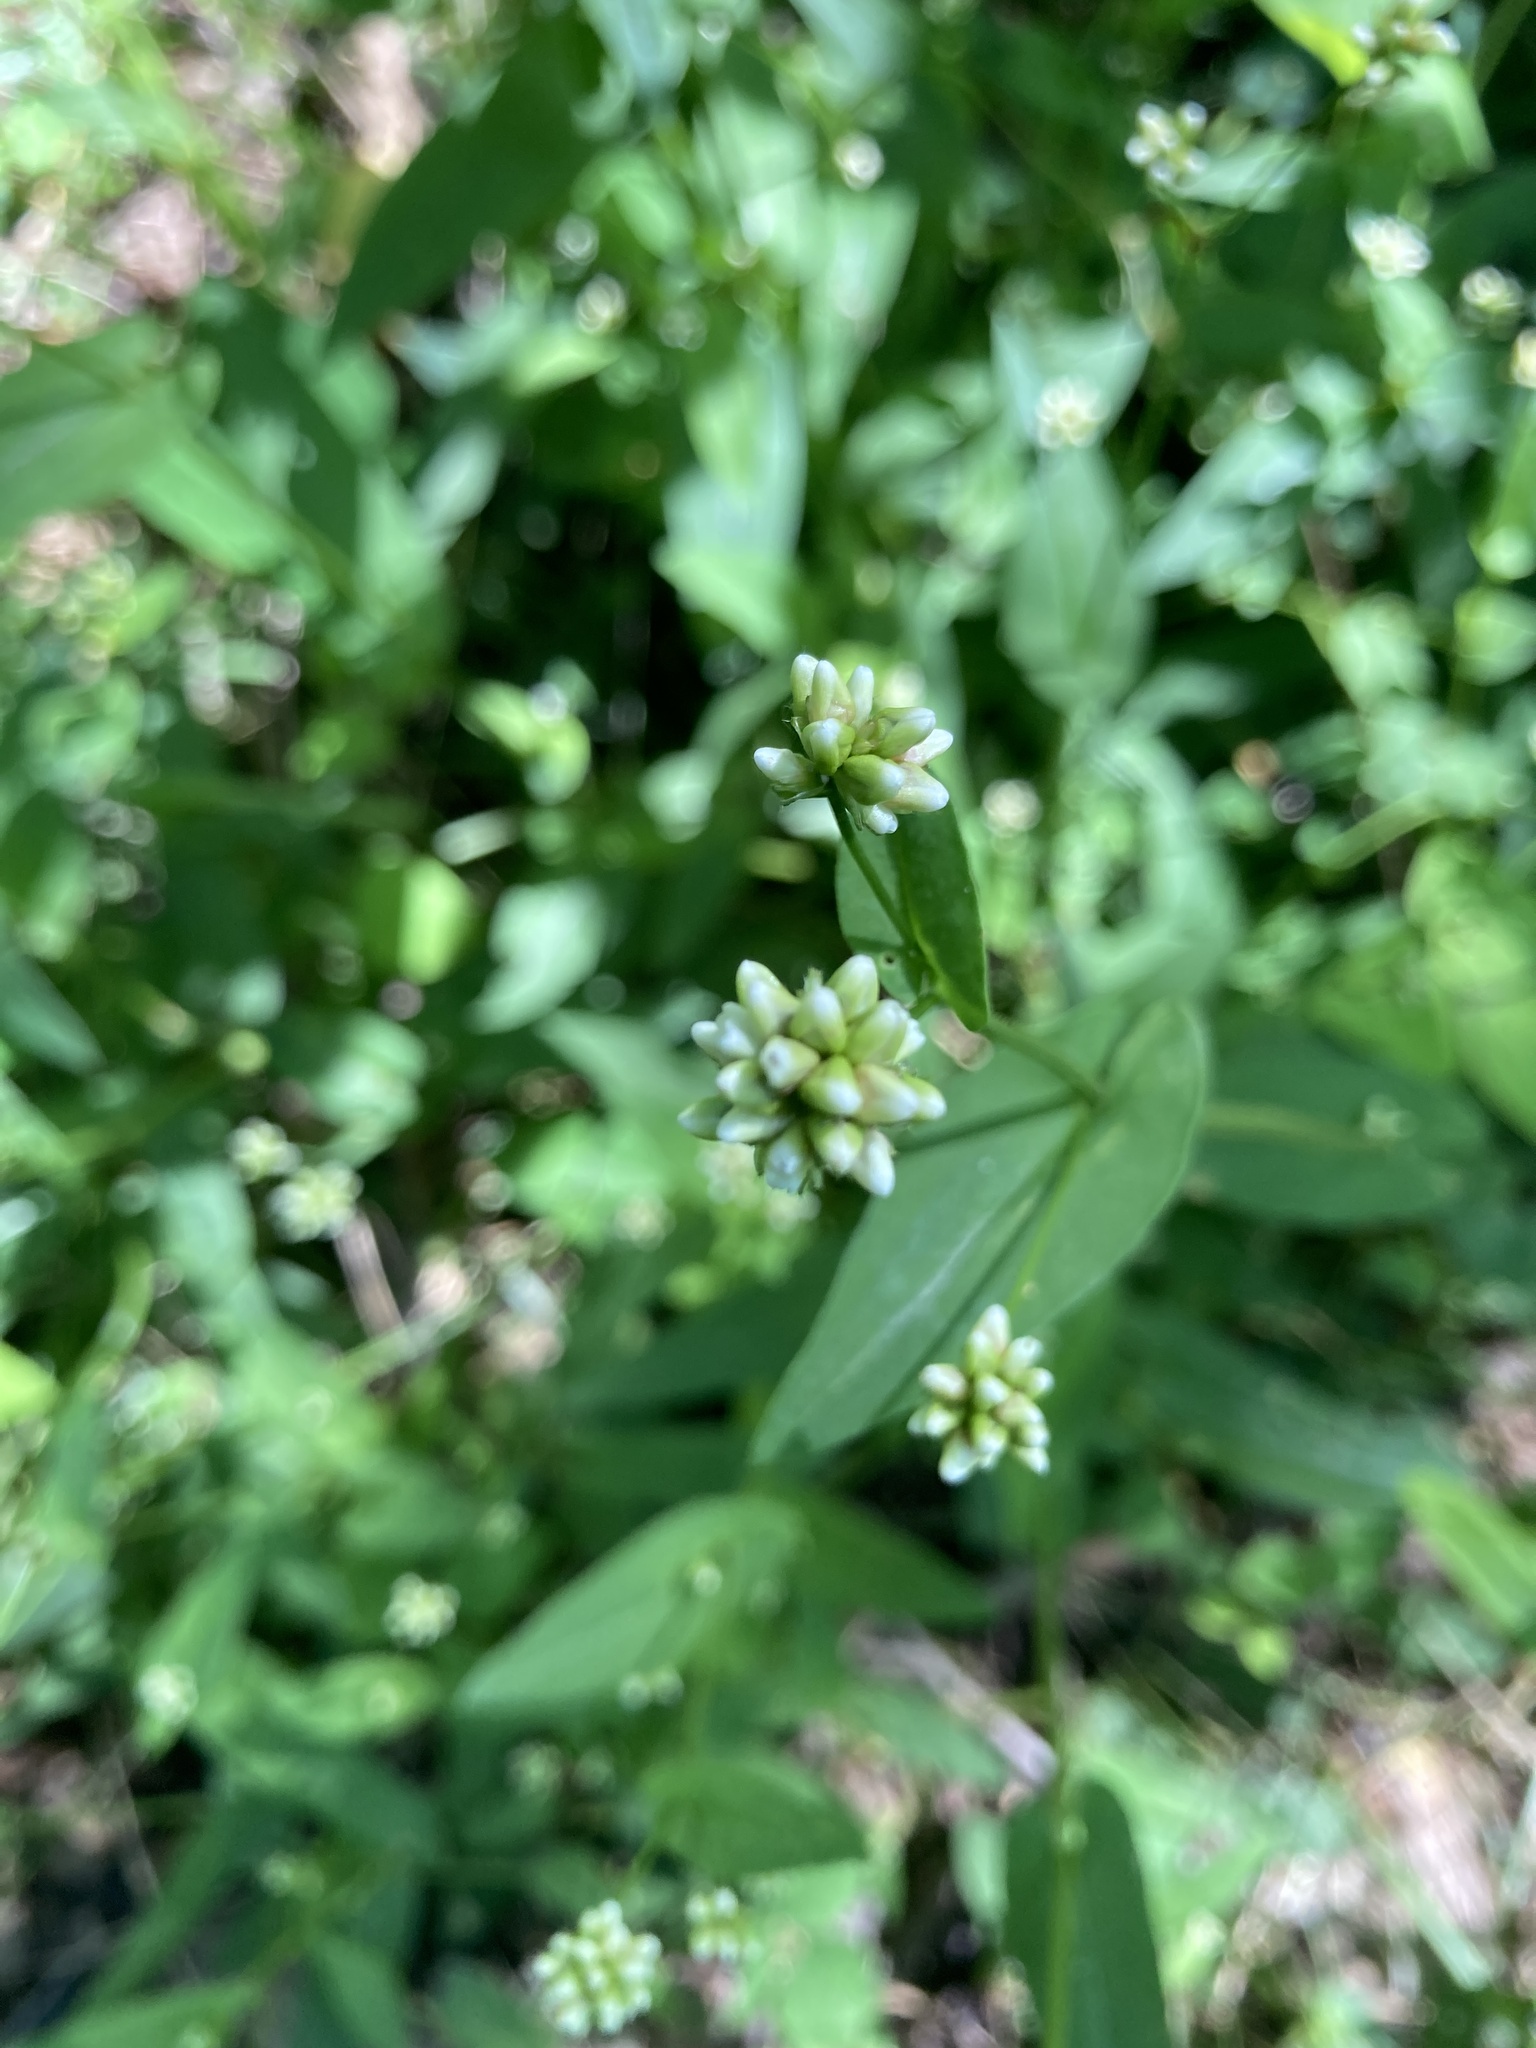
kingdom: Plantae
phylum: Tracheophyta
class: Magnoliopsida
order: Caryophyllales
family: Polygonaceae
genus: Persicaria
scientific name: Persicaria sagittata
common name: American tearthumb
